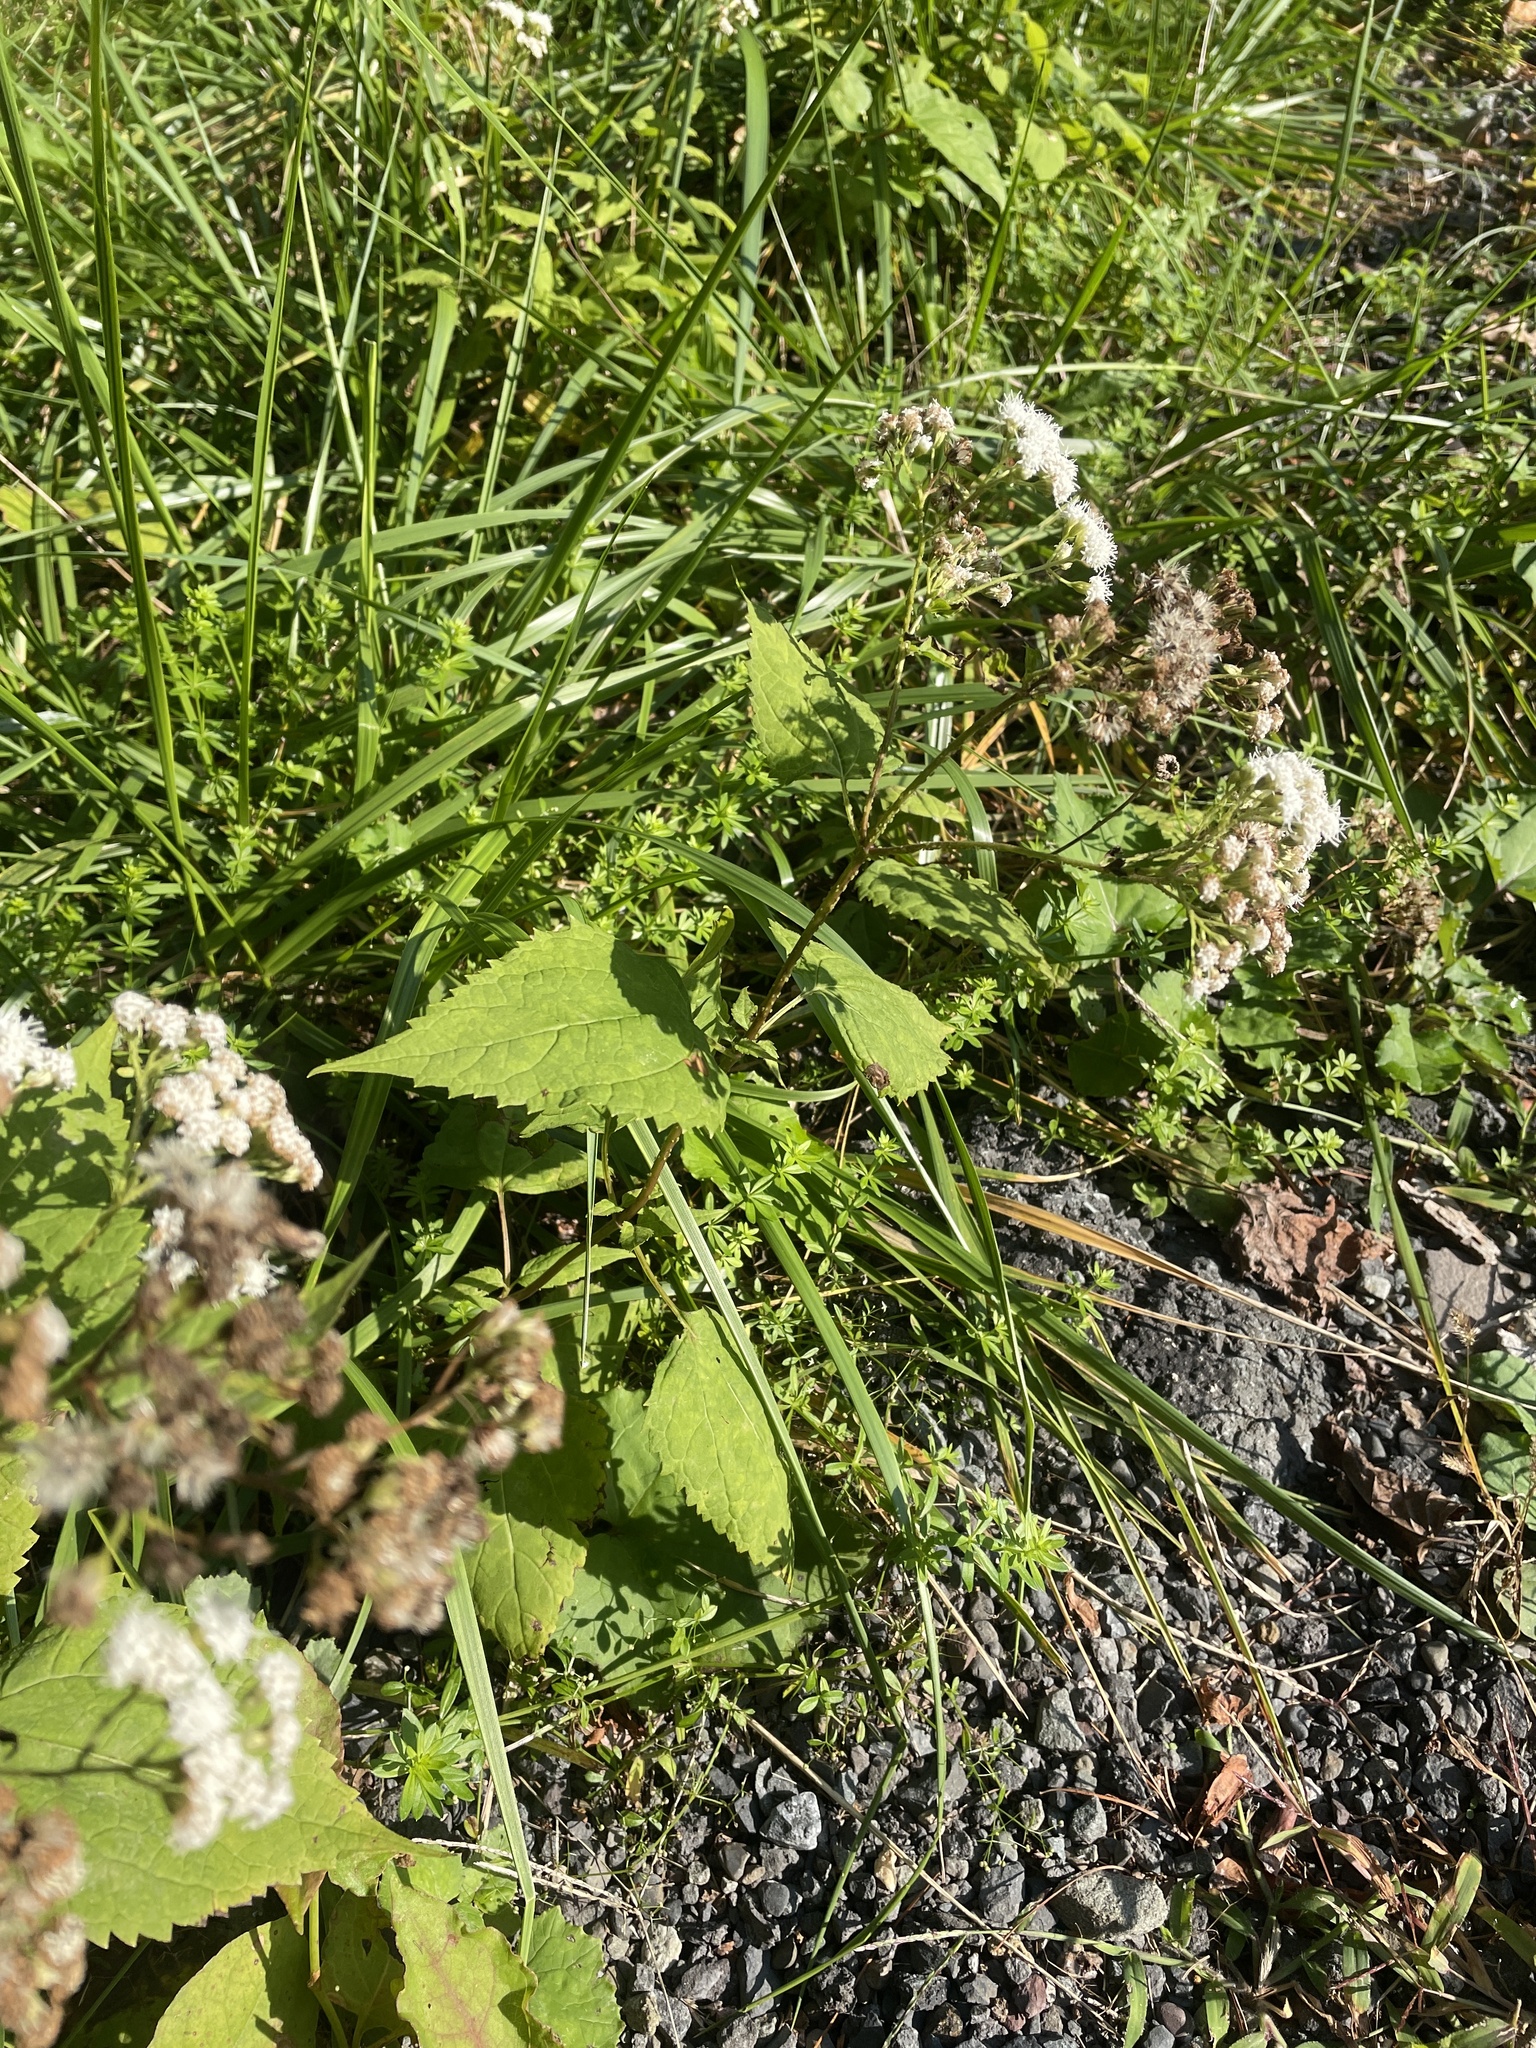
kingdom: Plantae
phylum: Tracheophyta
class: Magnoliopsida
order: Asterales
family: Asteraceae
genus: Ageratina
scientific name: Ageratina altissima
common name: White snakeroot
